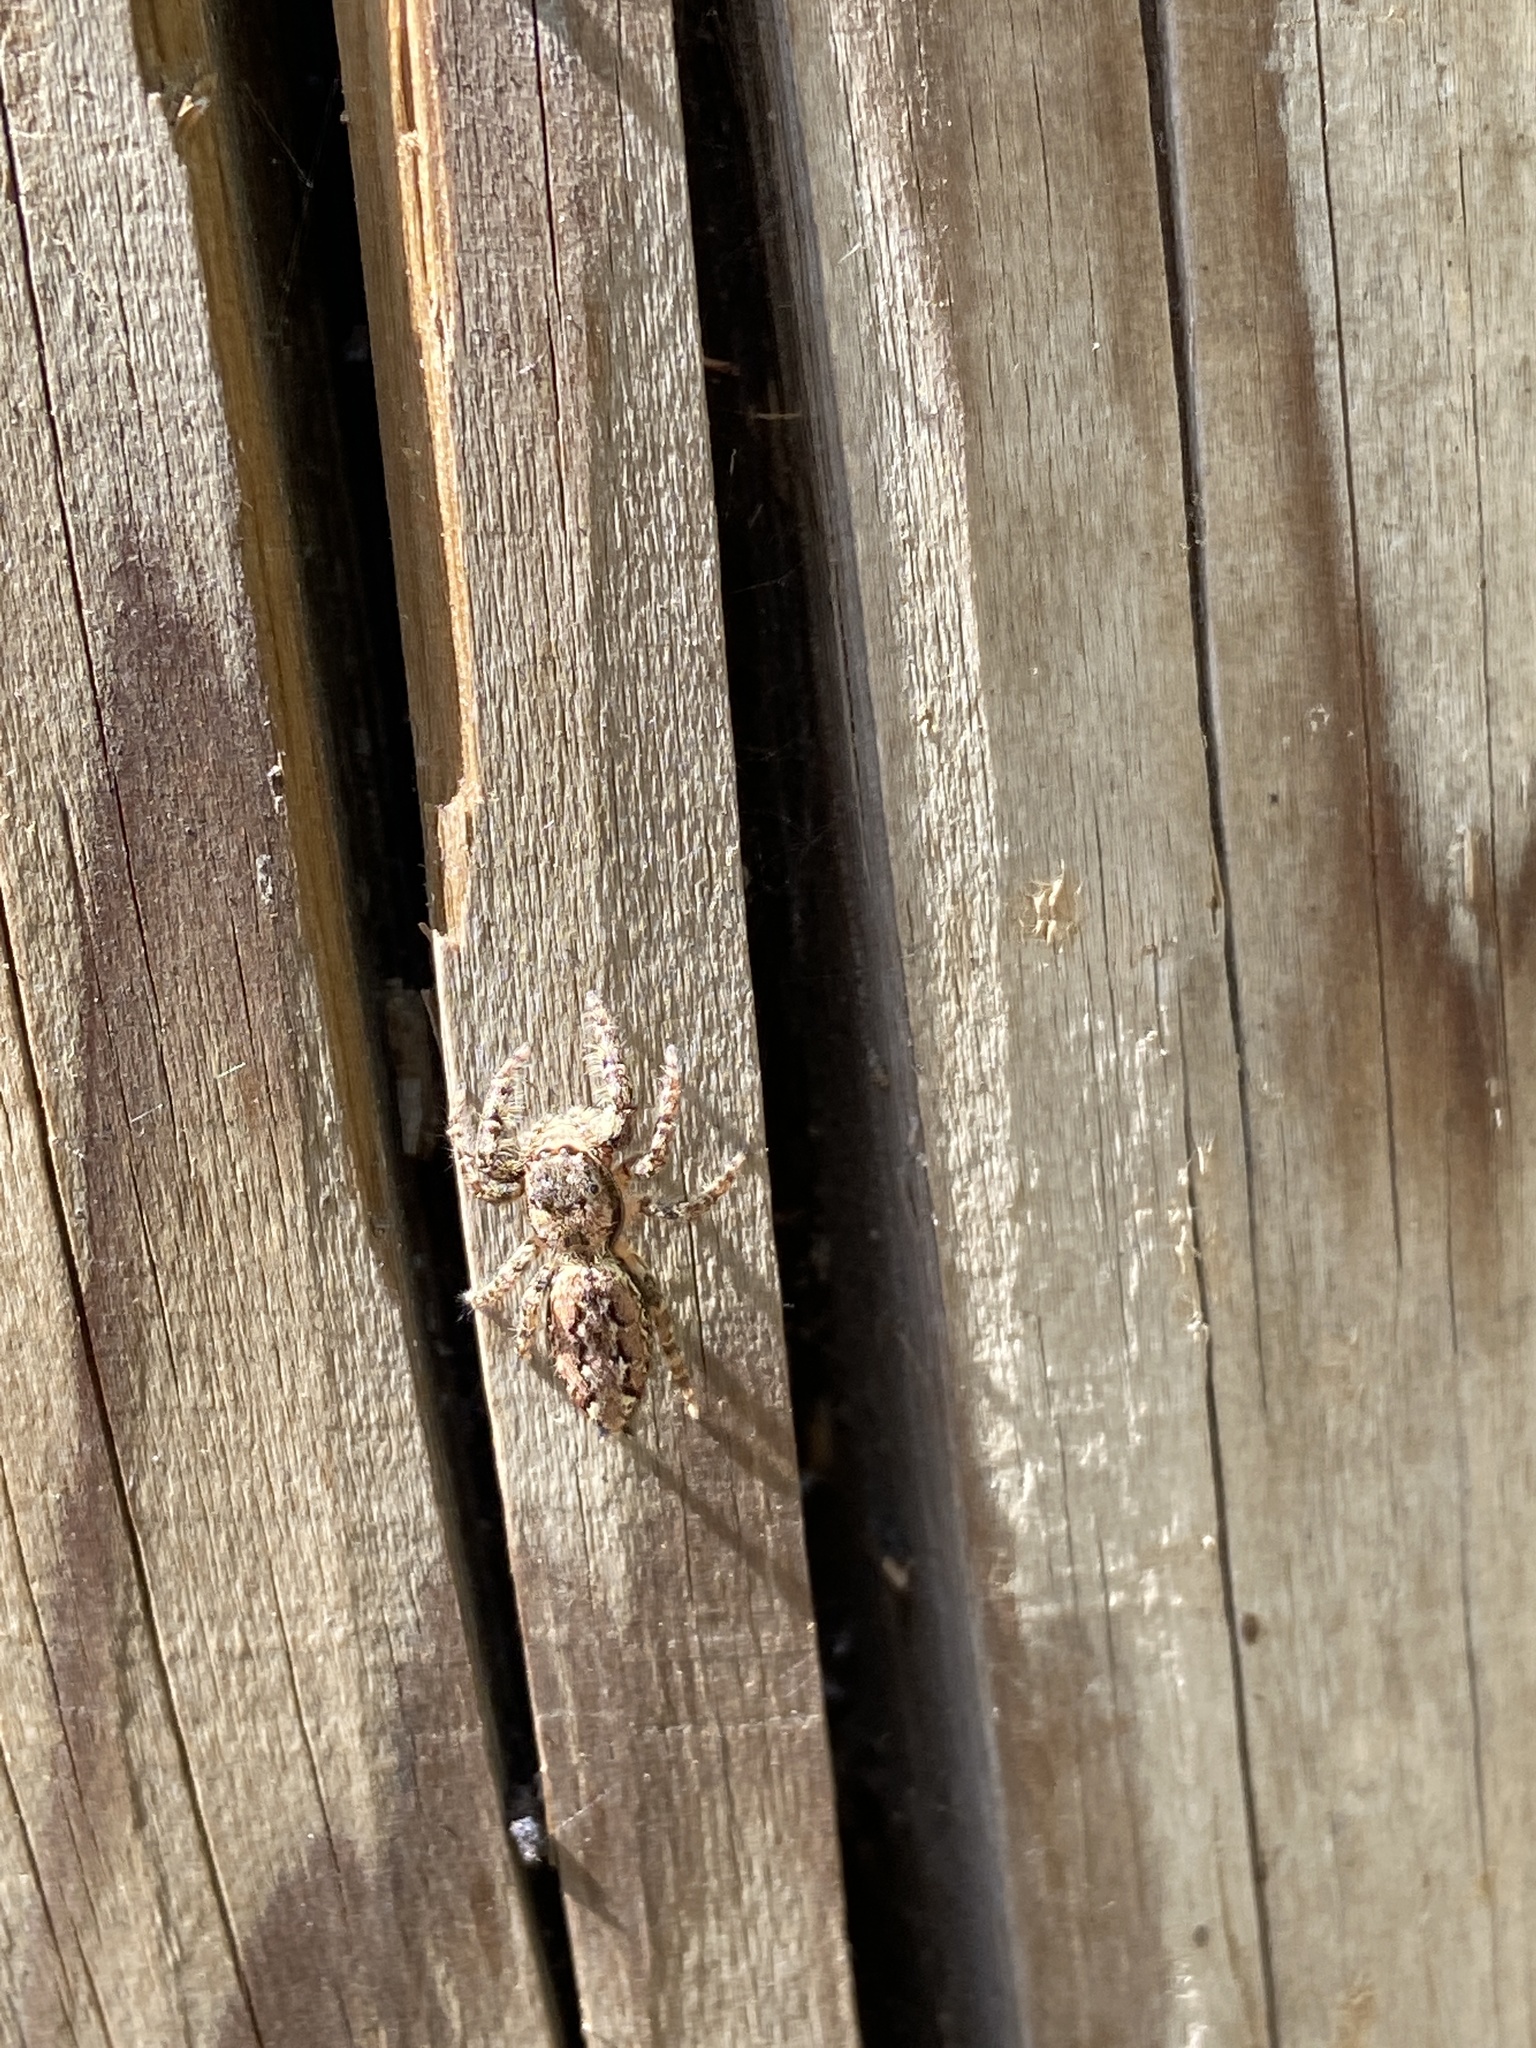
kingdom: Animalia
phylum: Arthropoda
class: Arachnida
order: Araneae
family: Salticidae
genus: Marpissa
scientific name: Marpissa muscosa
